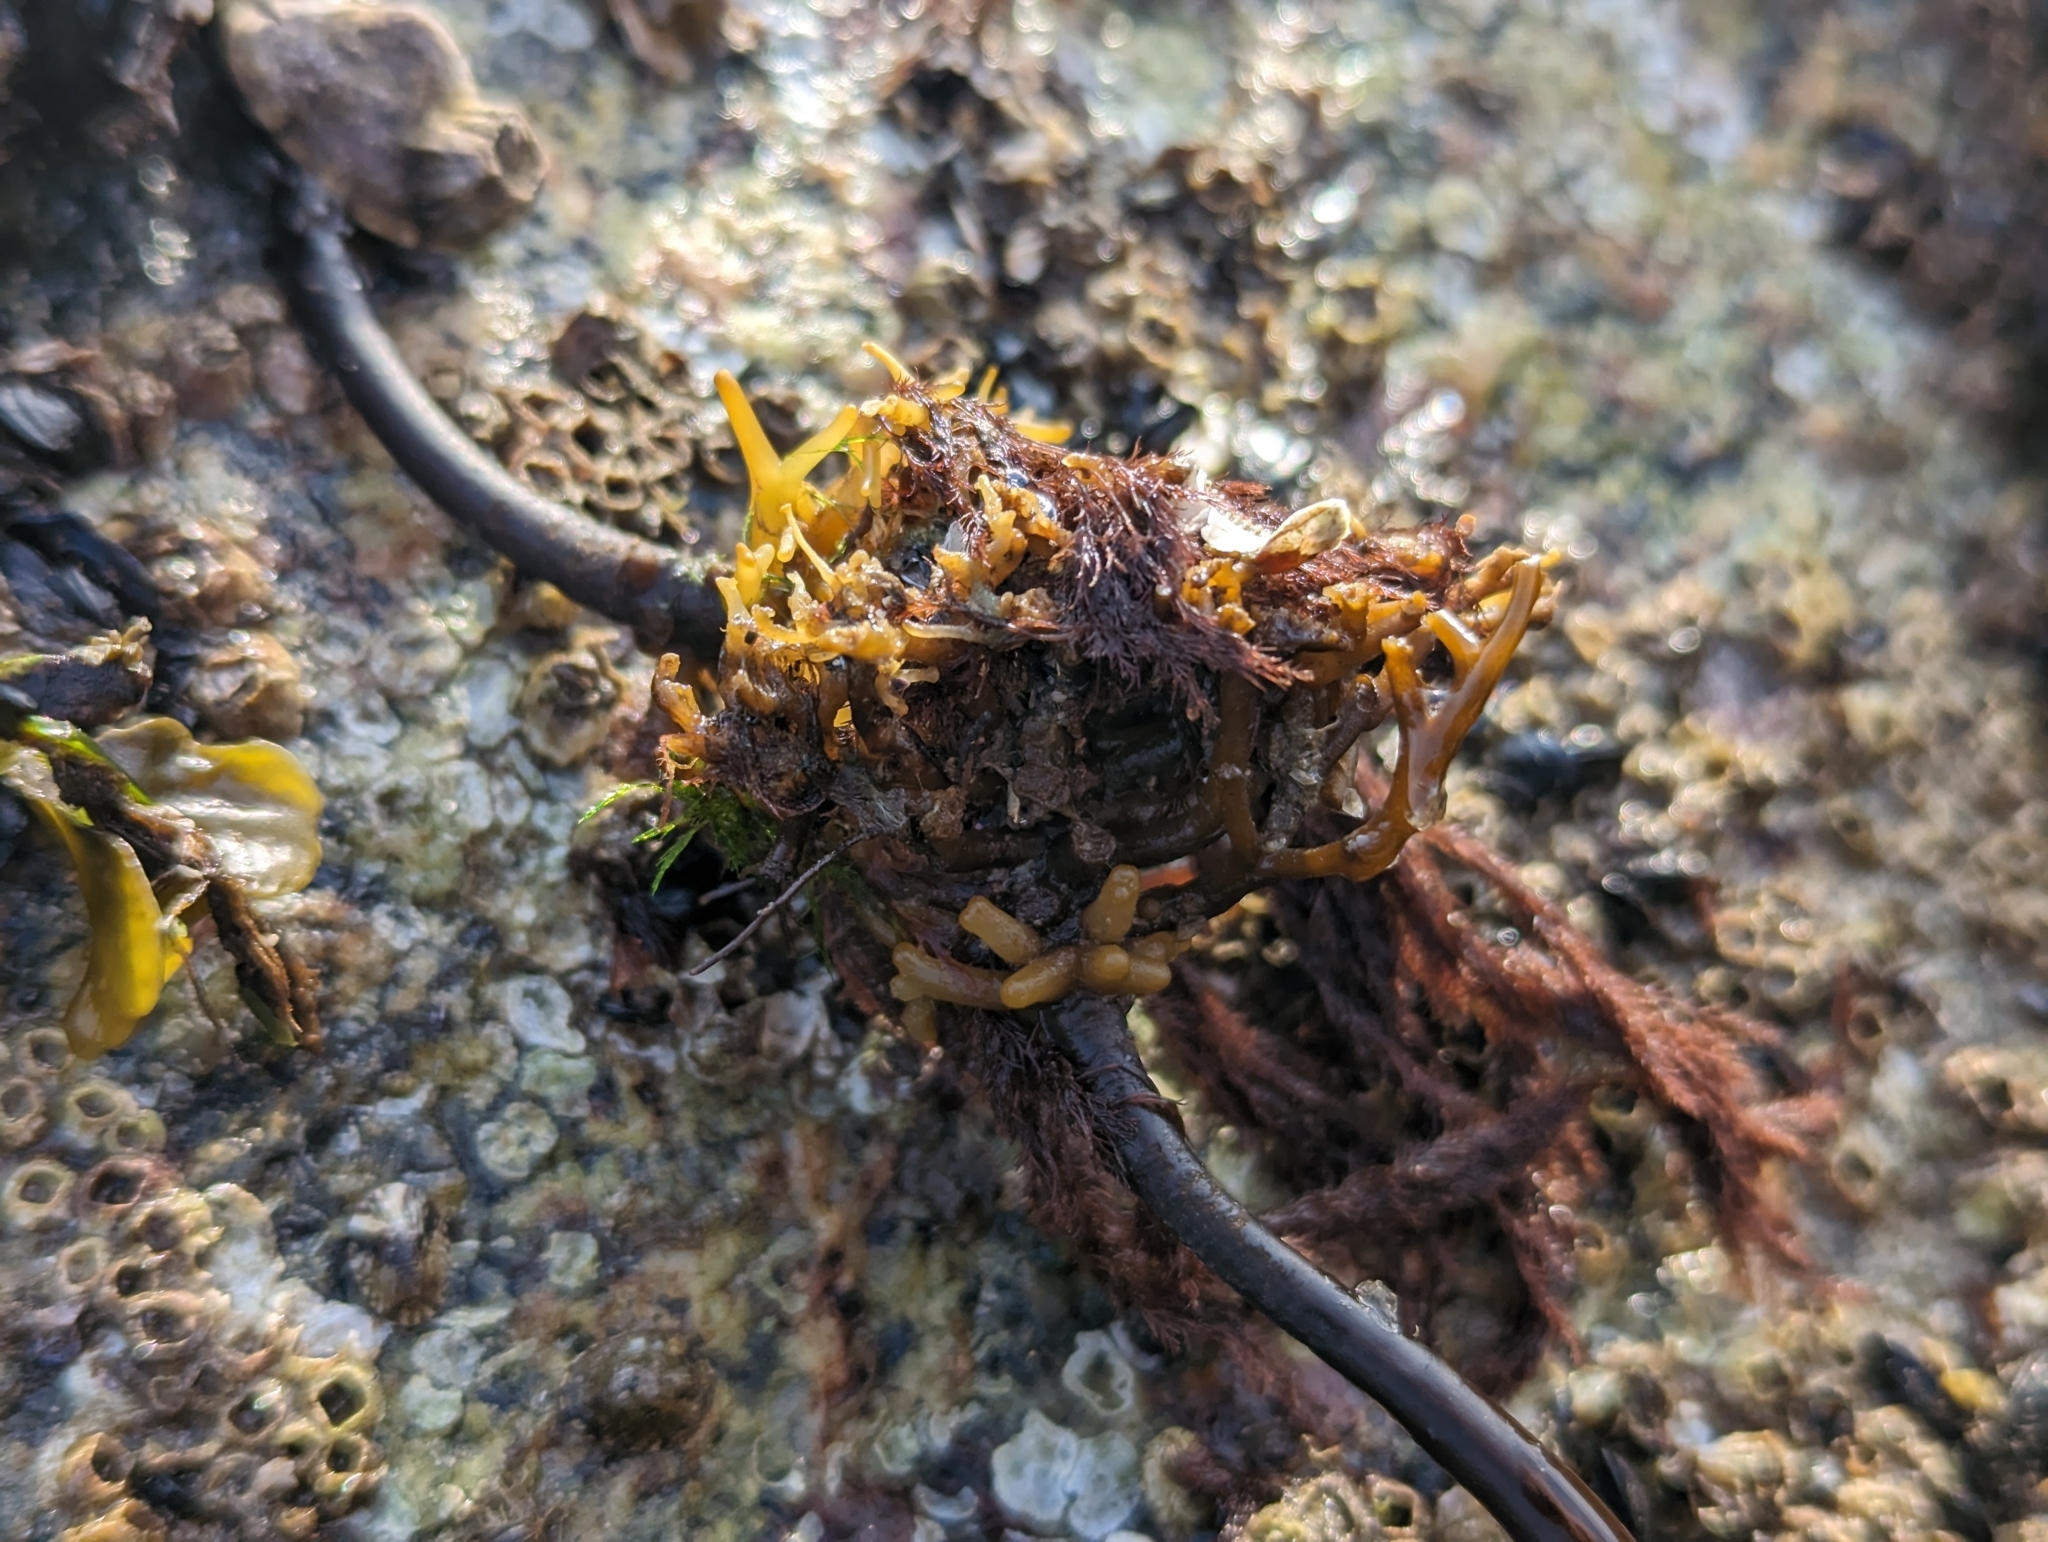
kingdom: Chromista
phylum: Ochrophyta
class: Phaeophyceae
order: Laminariales
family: Laminariaceae
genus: Saccharina
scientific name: Saccharina latissima
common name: Poor man's weather glass
